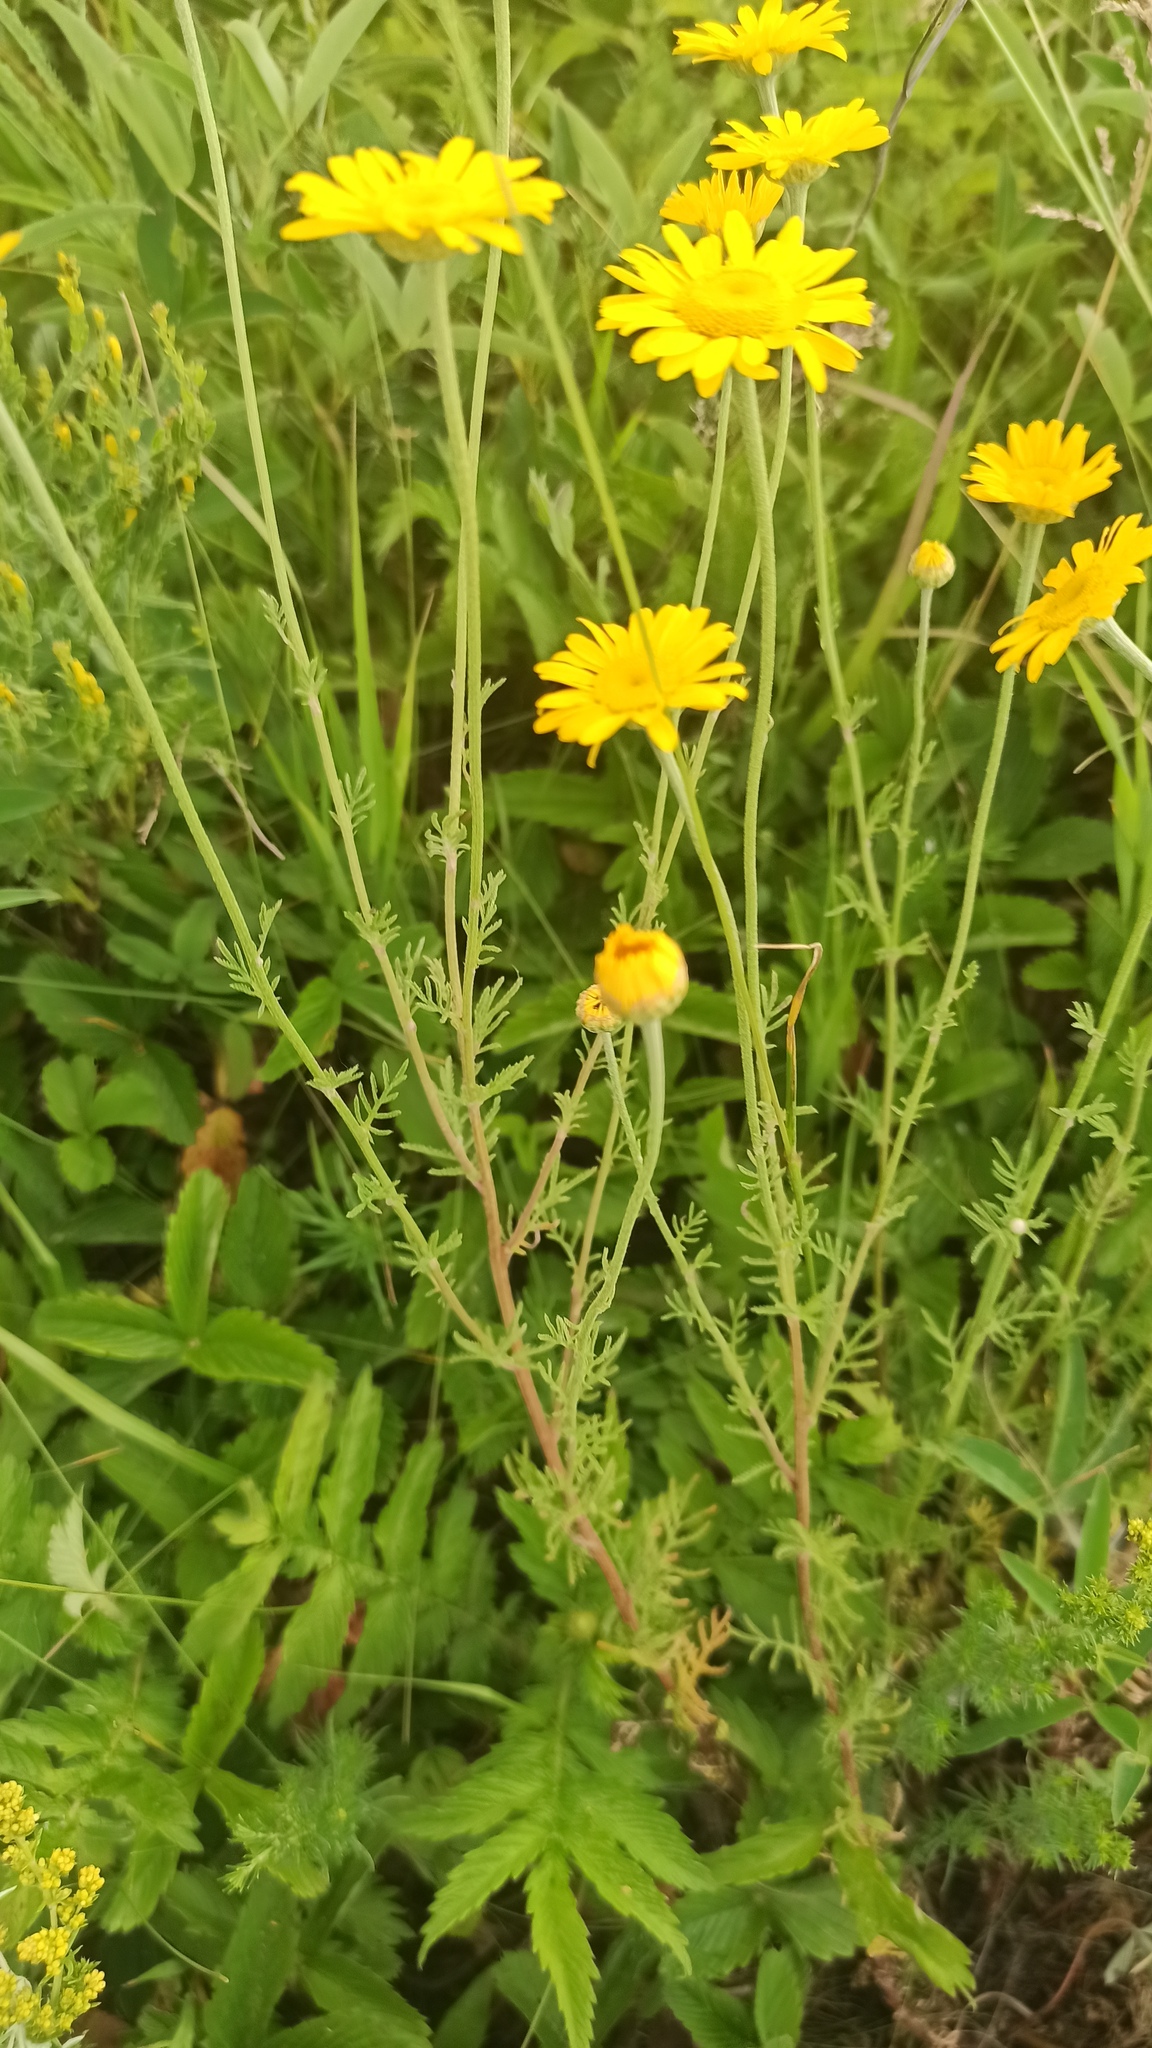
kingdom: Plantae
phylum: Tracheophyta
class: Magnoliopsida
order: Asterales
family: Asteraceae
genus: Cota
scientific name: Cota tinctoria
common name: Golden chamomile
